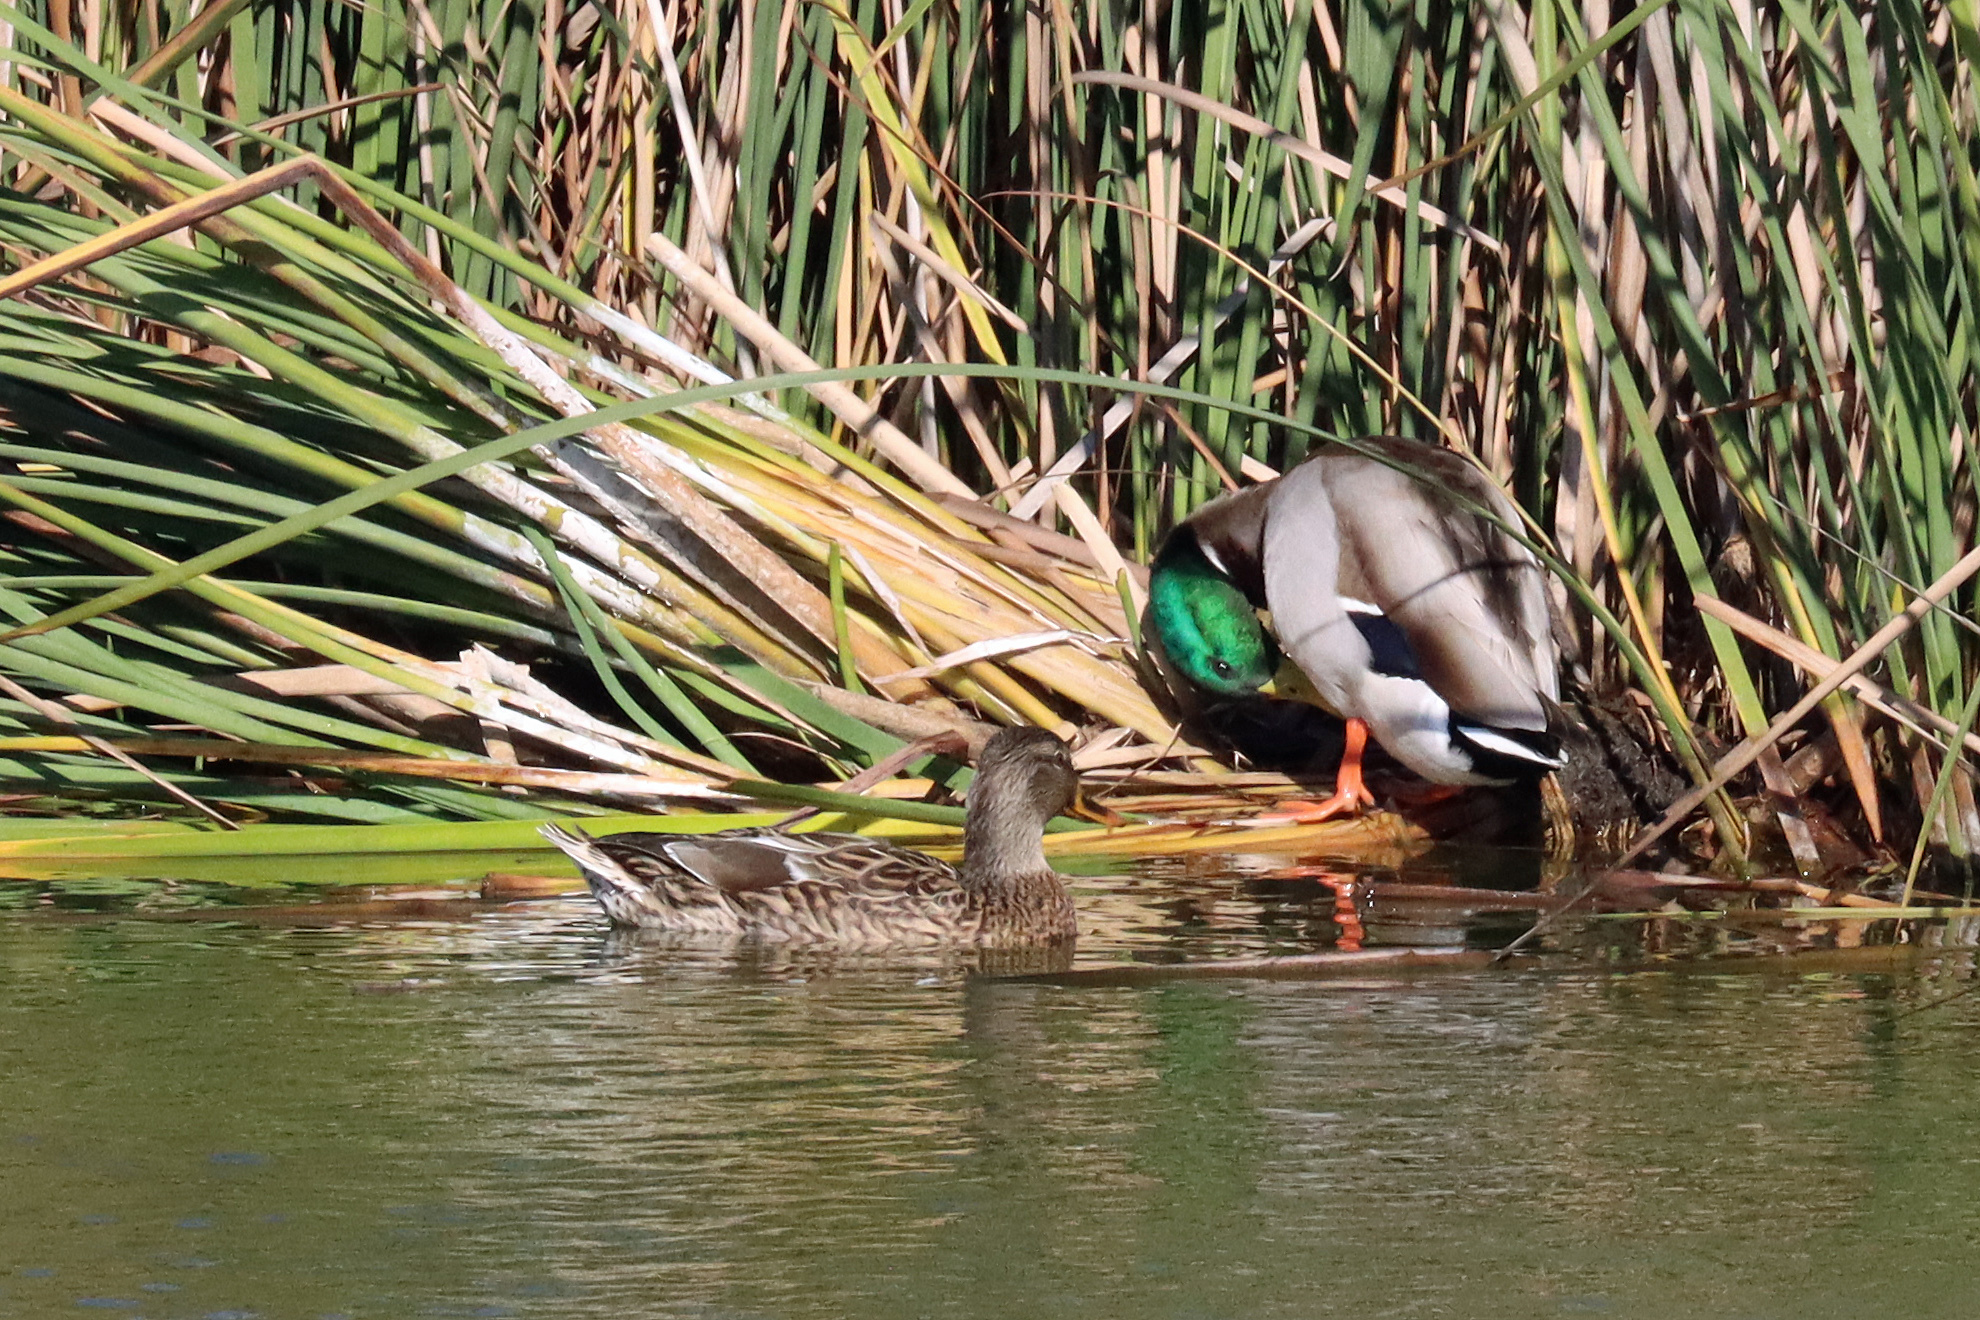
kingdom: Animalia
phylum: Chordata
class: Aves
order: Anseriformes
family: Anatidae
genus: Anas
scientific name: Anas platyrhynchos
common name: Mallard
